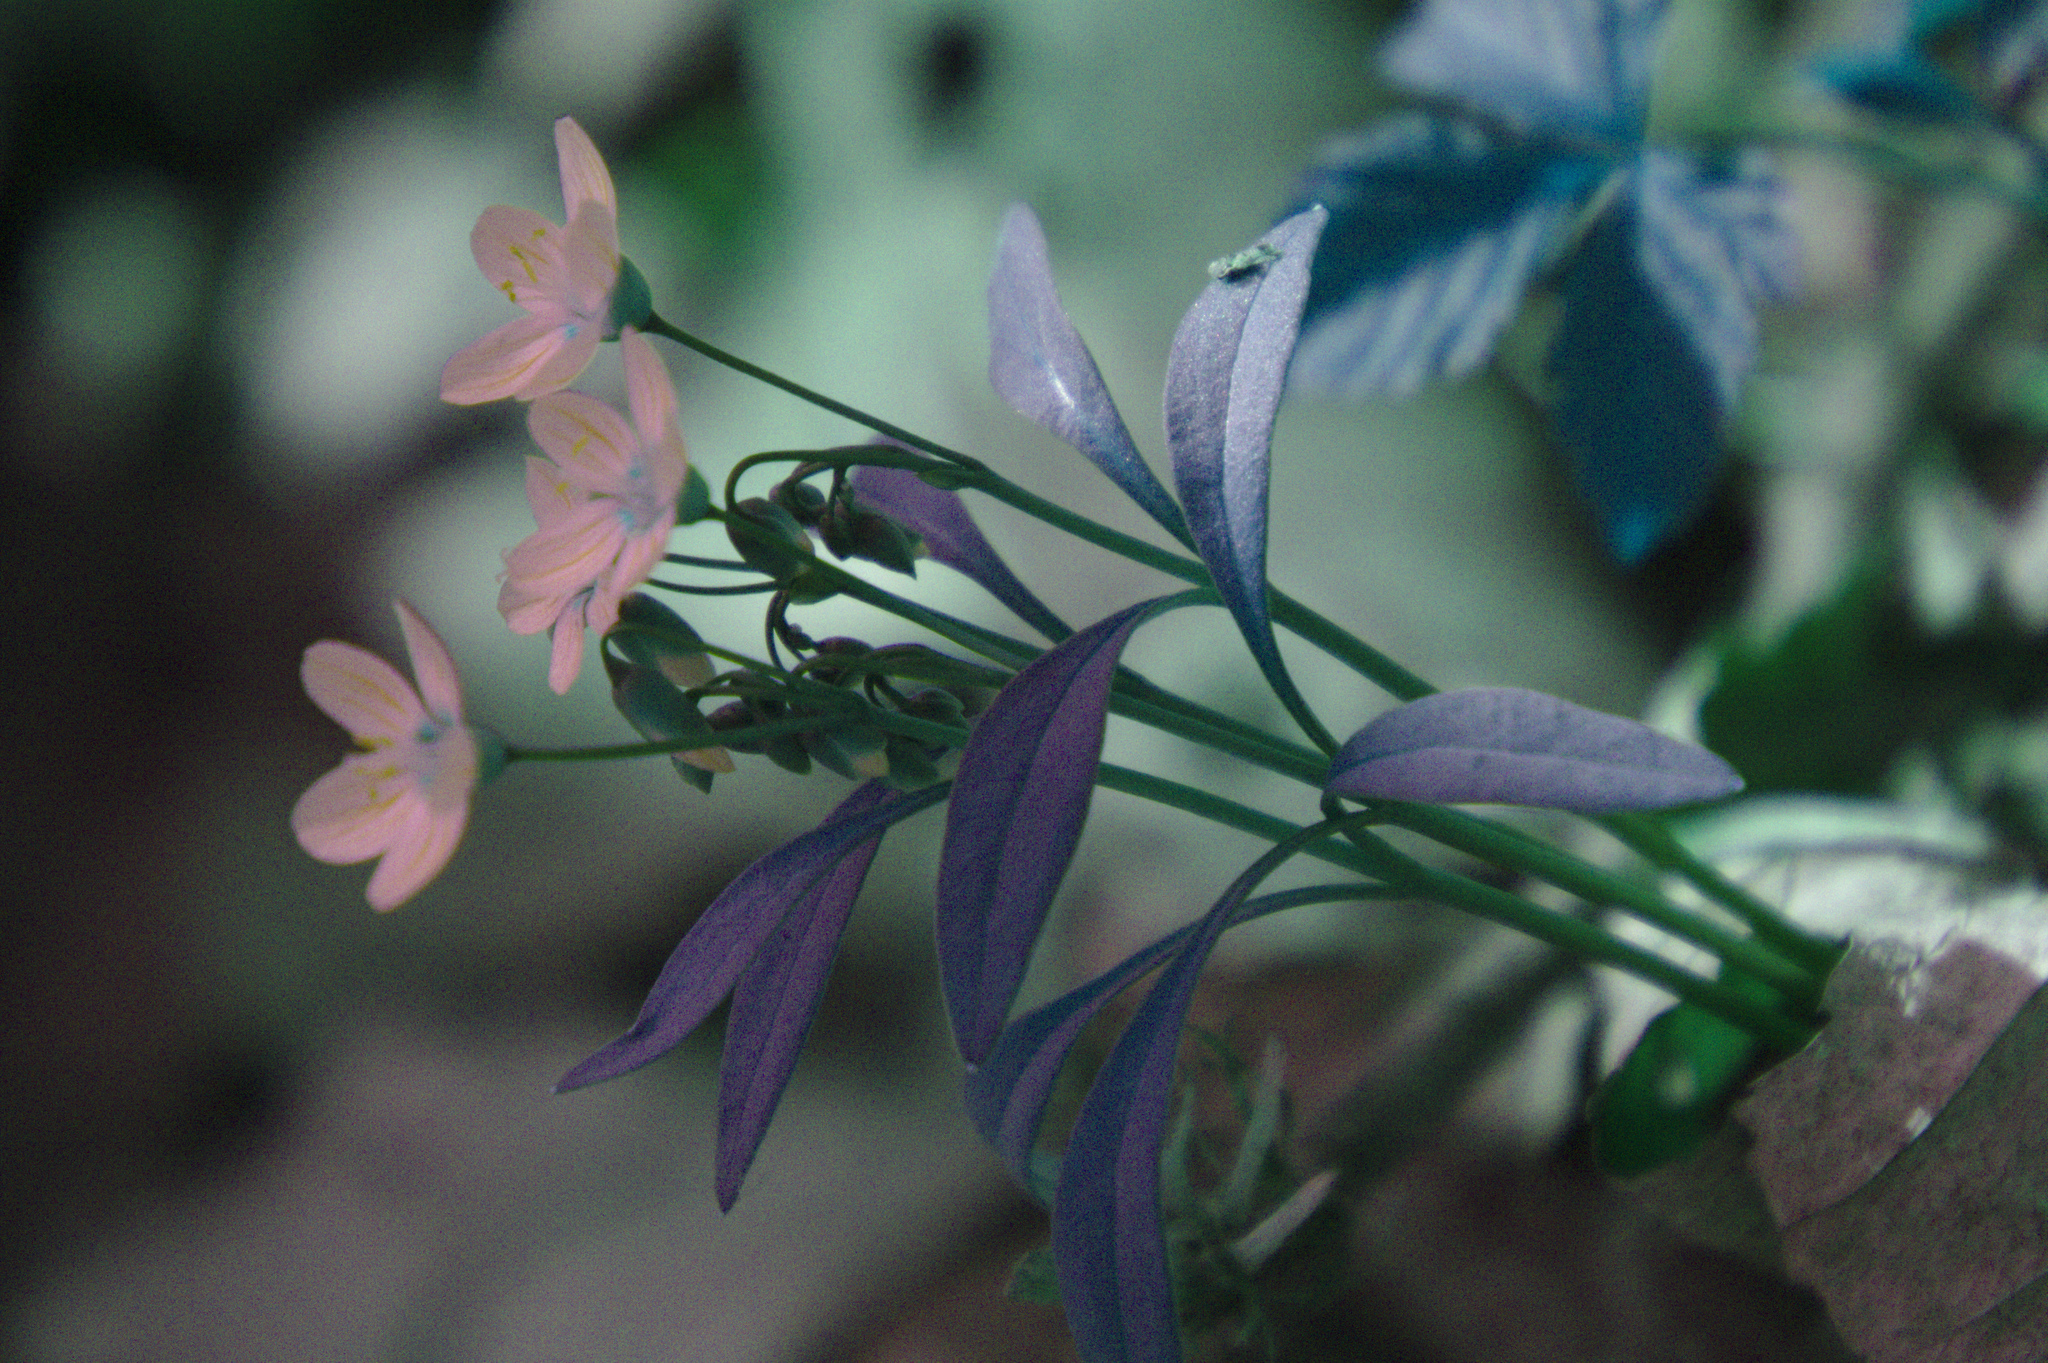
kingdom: Plantae
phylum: Tracheophyta
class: Magnoliopsida
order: Caryophyllales
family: Montiaceae
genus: Claytonia
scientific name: Claytonia caroliniana
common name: Carolina spring beauty
